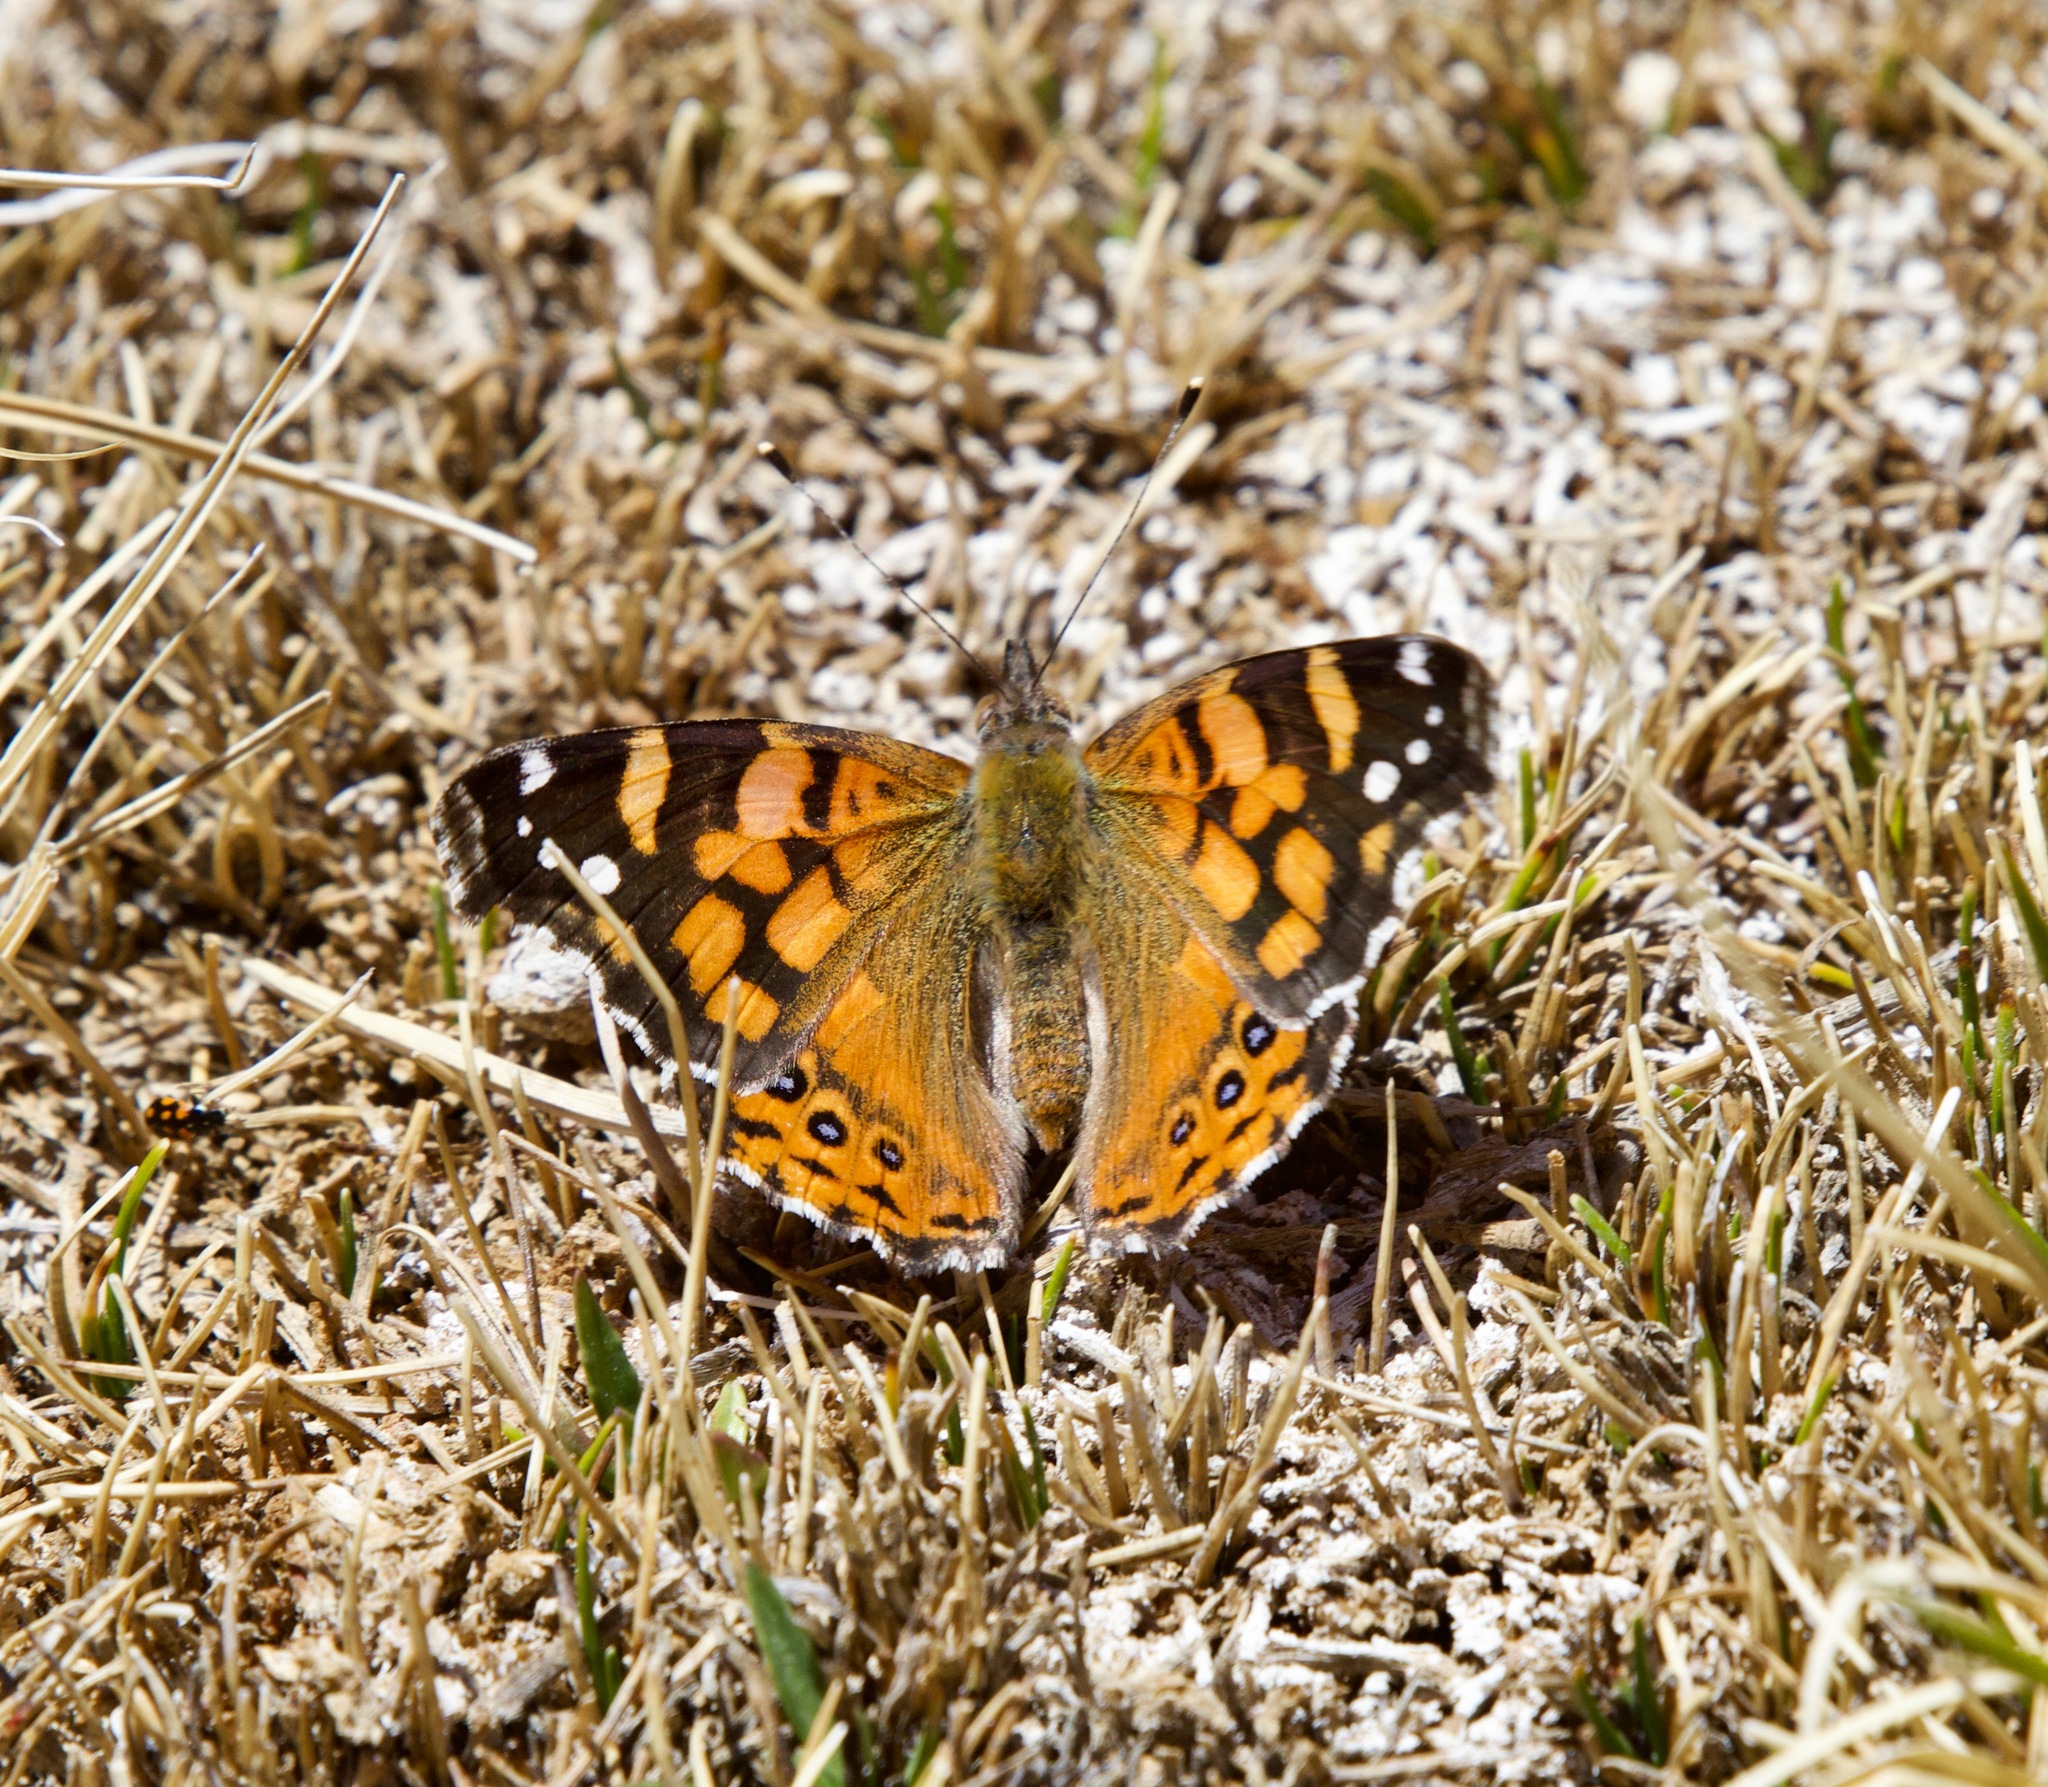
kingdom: Animalia
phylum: Arthropoda
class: Insecta
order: Lepidoptera
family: Nymphalidae
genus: Vanessa
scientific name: Vanessa carye
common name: Subtropical lady
